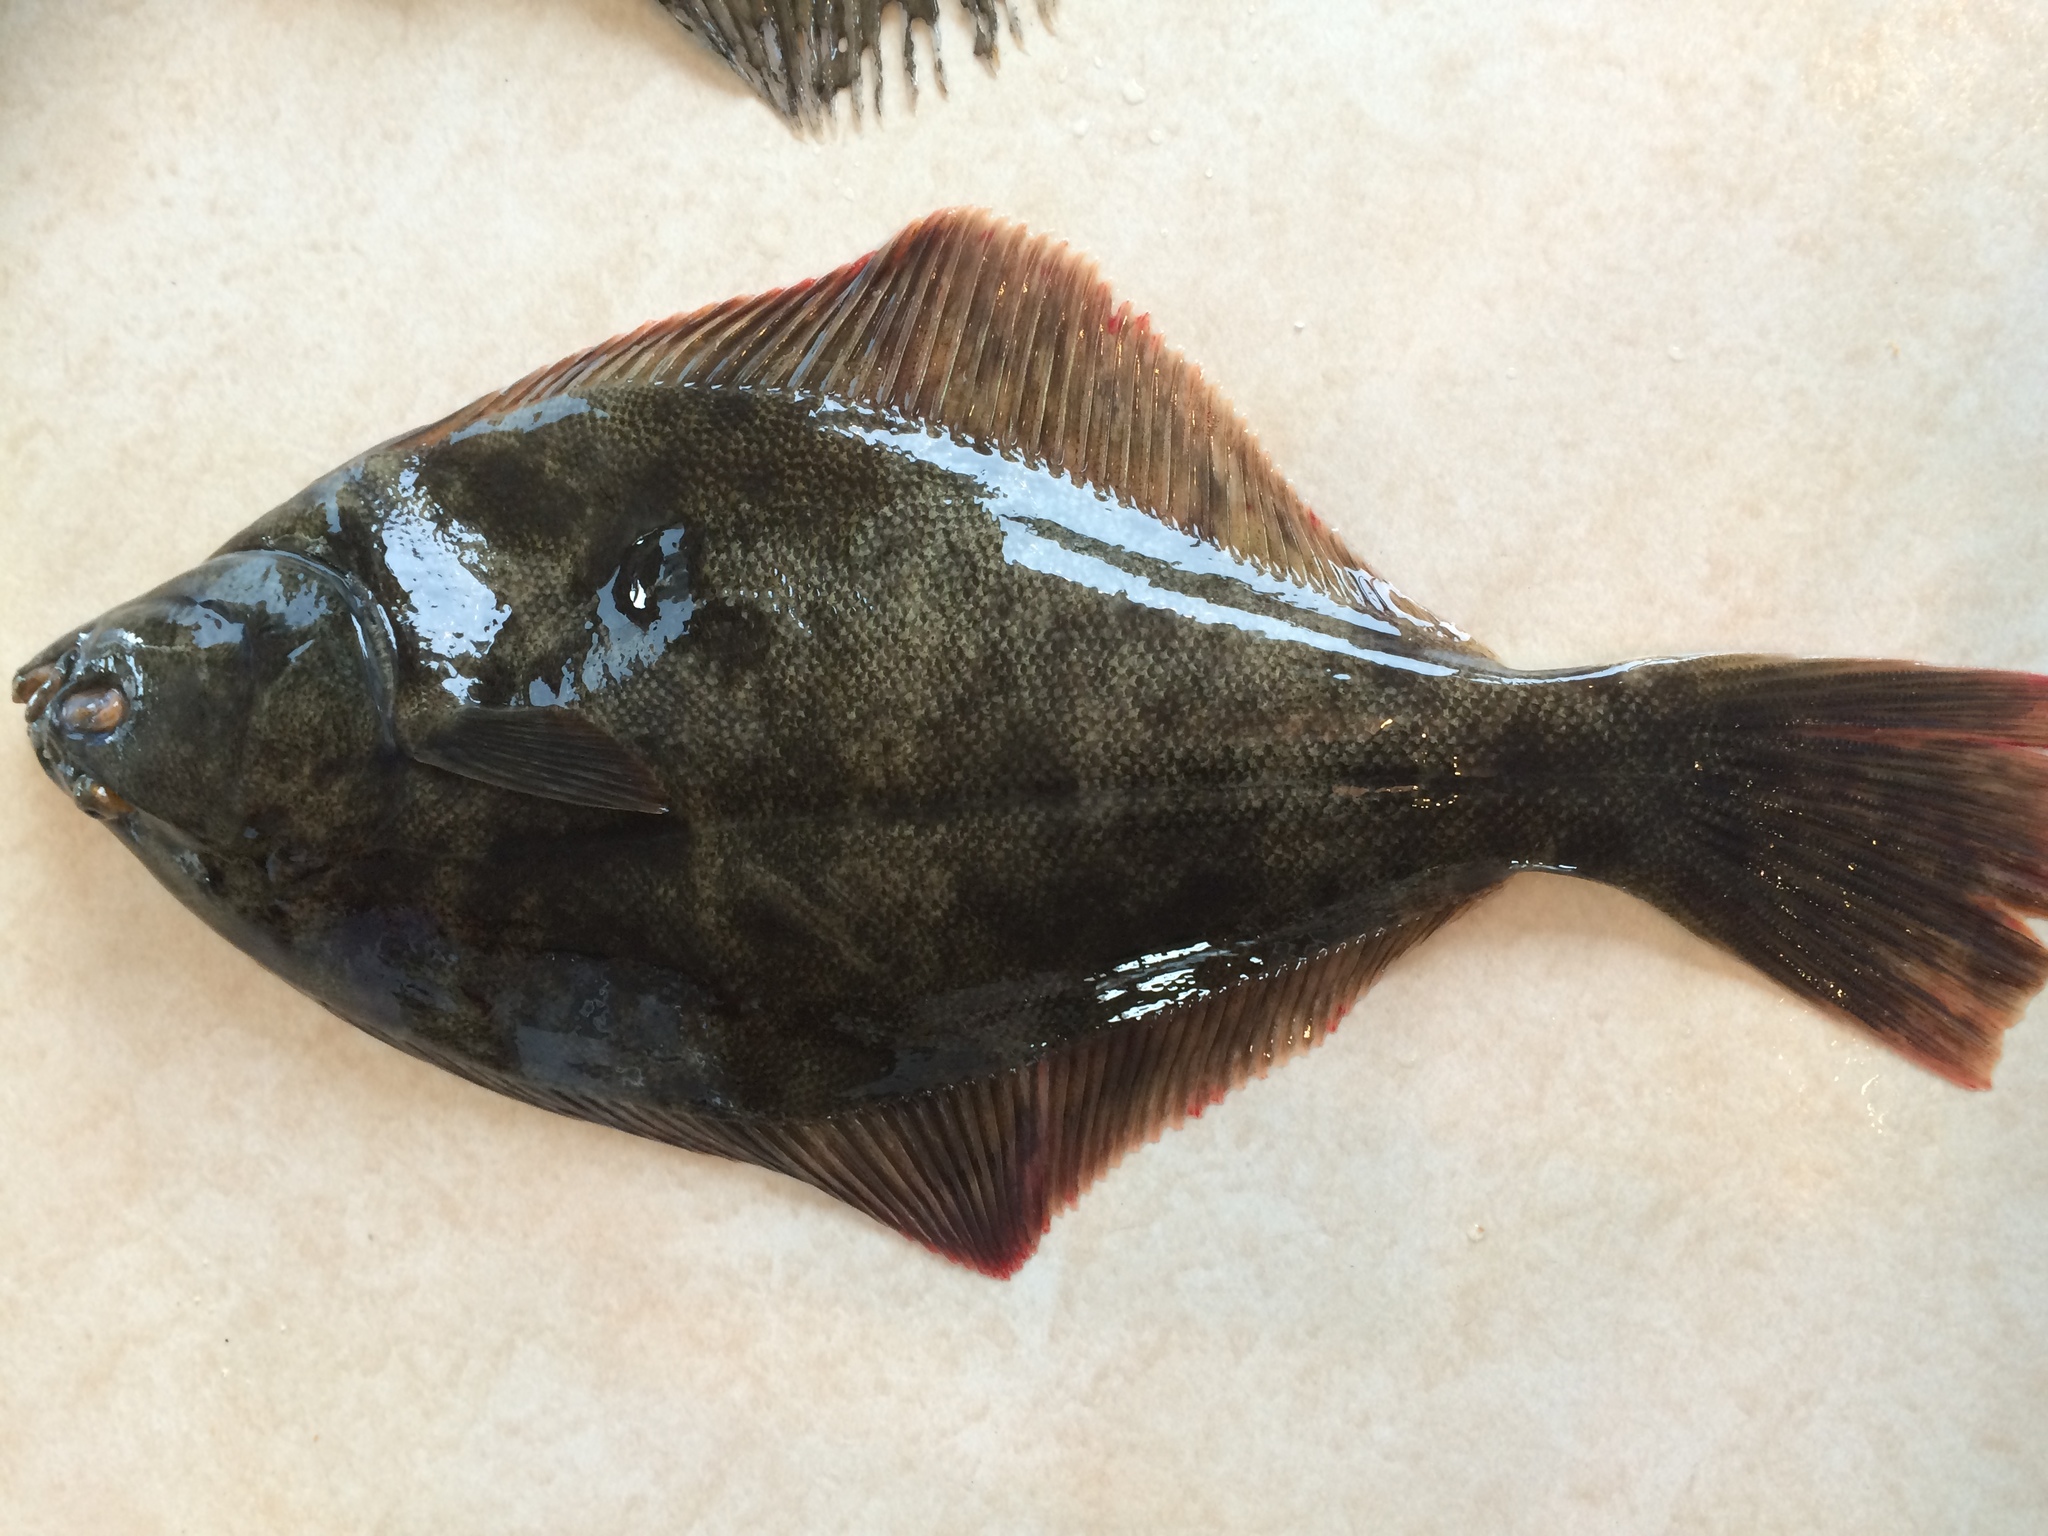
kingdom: Animalia
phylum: Chordata
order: Pleuronectiformes
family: Pleuronectidae
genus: Rhombosolea
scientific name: Rhombosolea leporina
